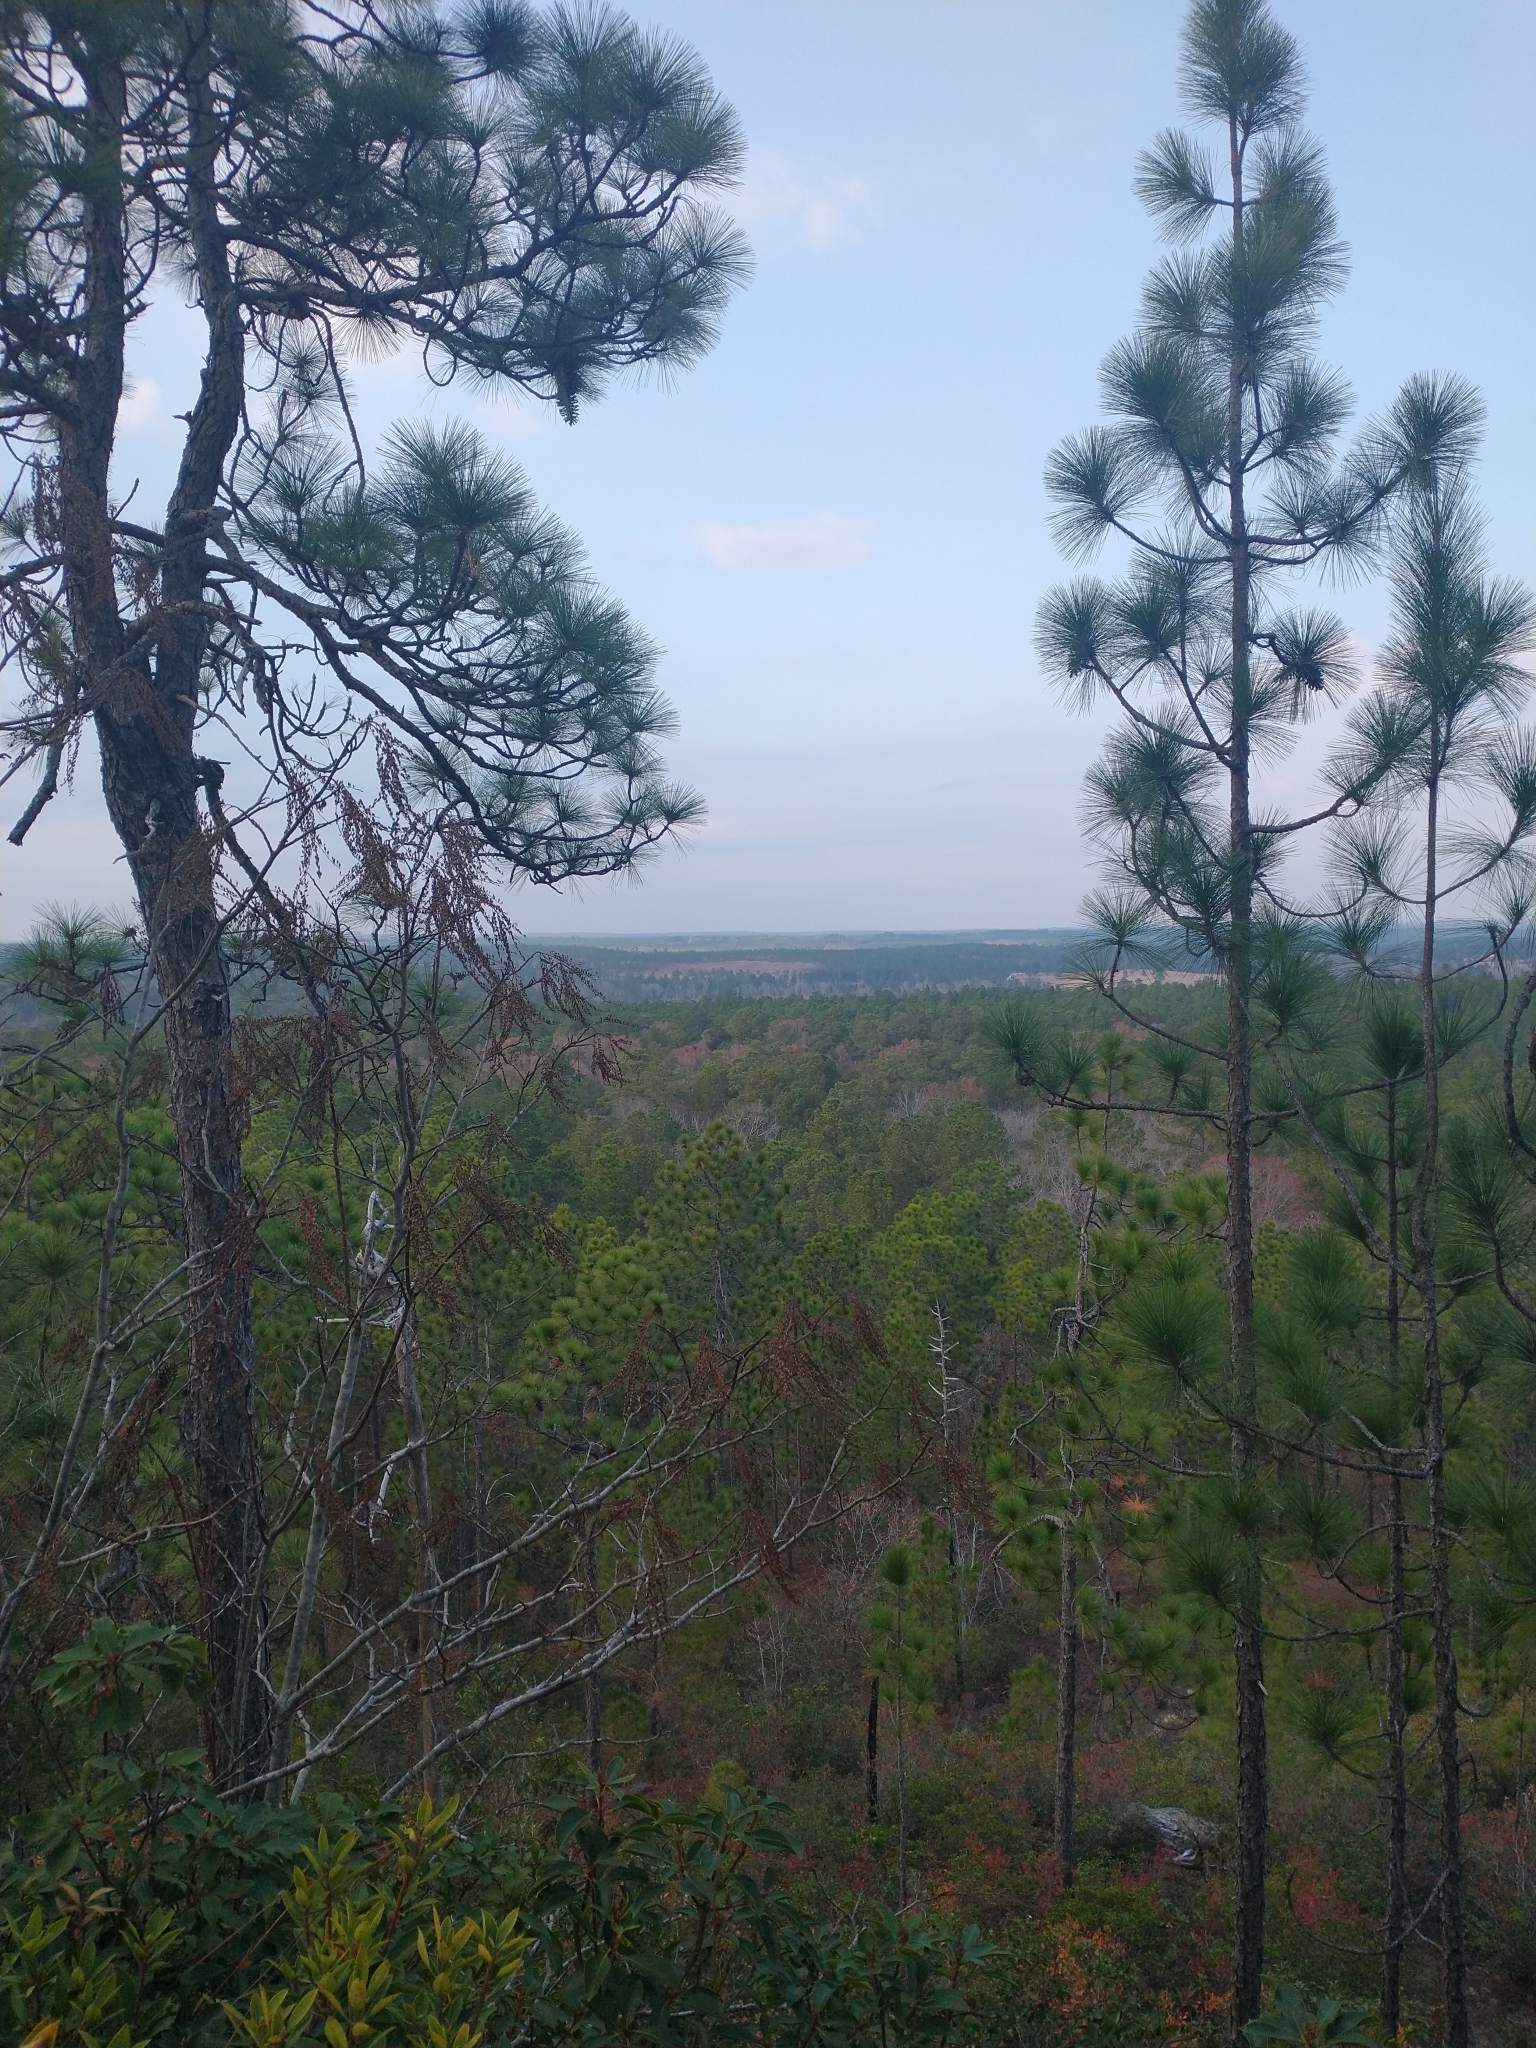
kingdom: Plantae
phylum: Tracheophyta
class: Pinopsida
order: Pinales
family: Pinaceae
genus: Pinus
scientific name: Pinus palustris
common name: Longleaf pine
